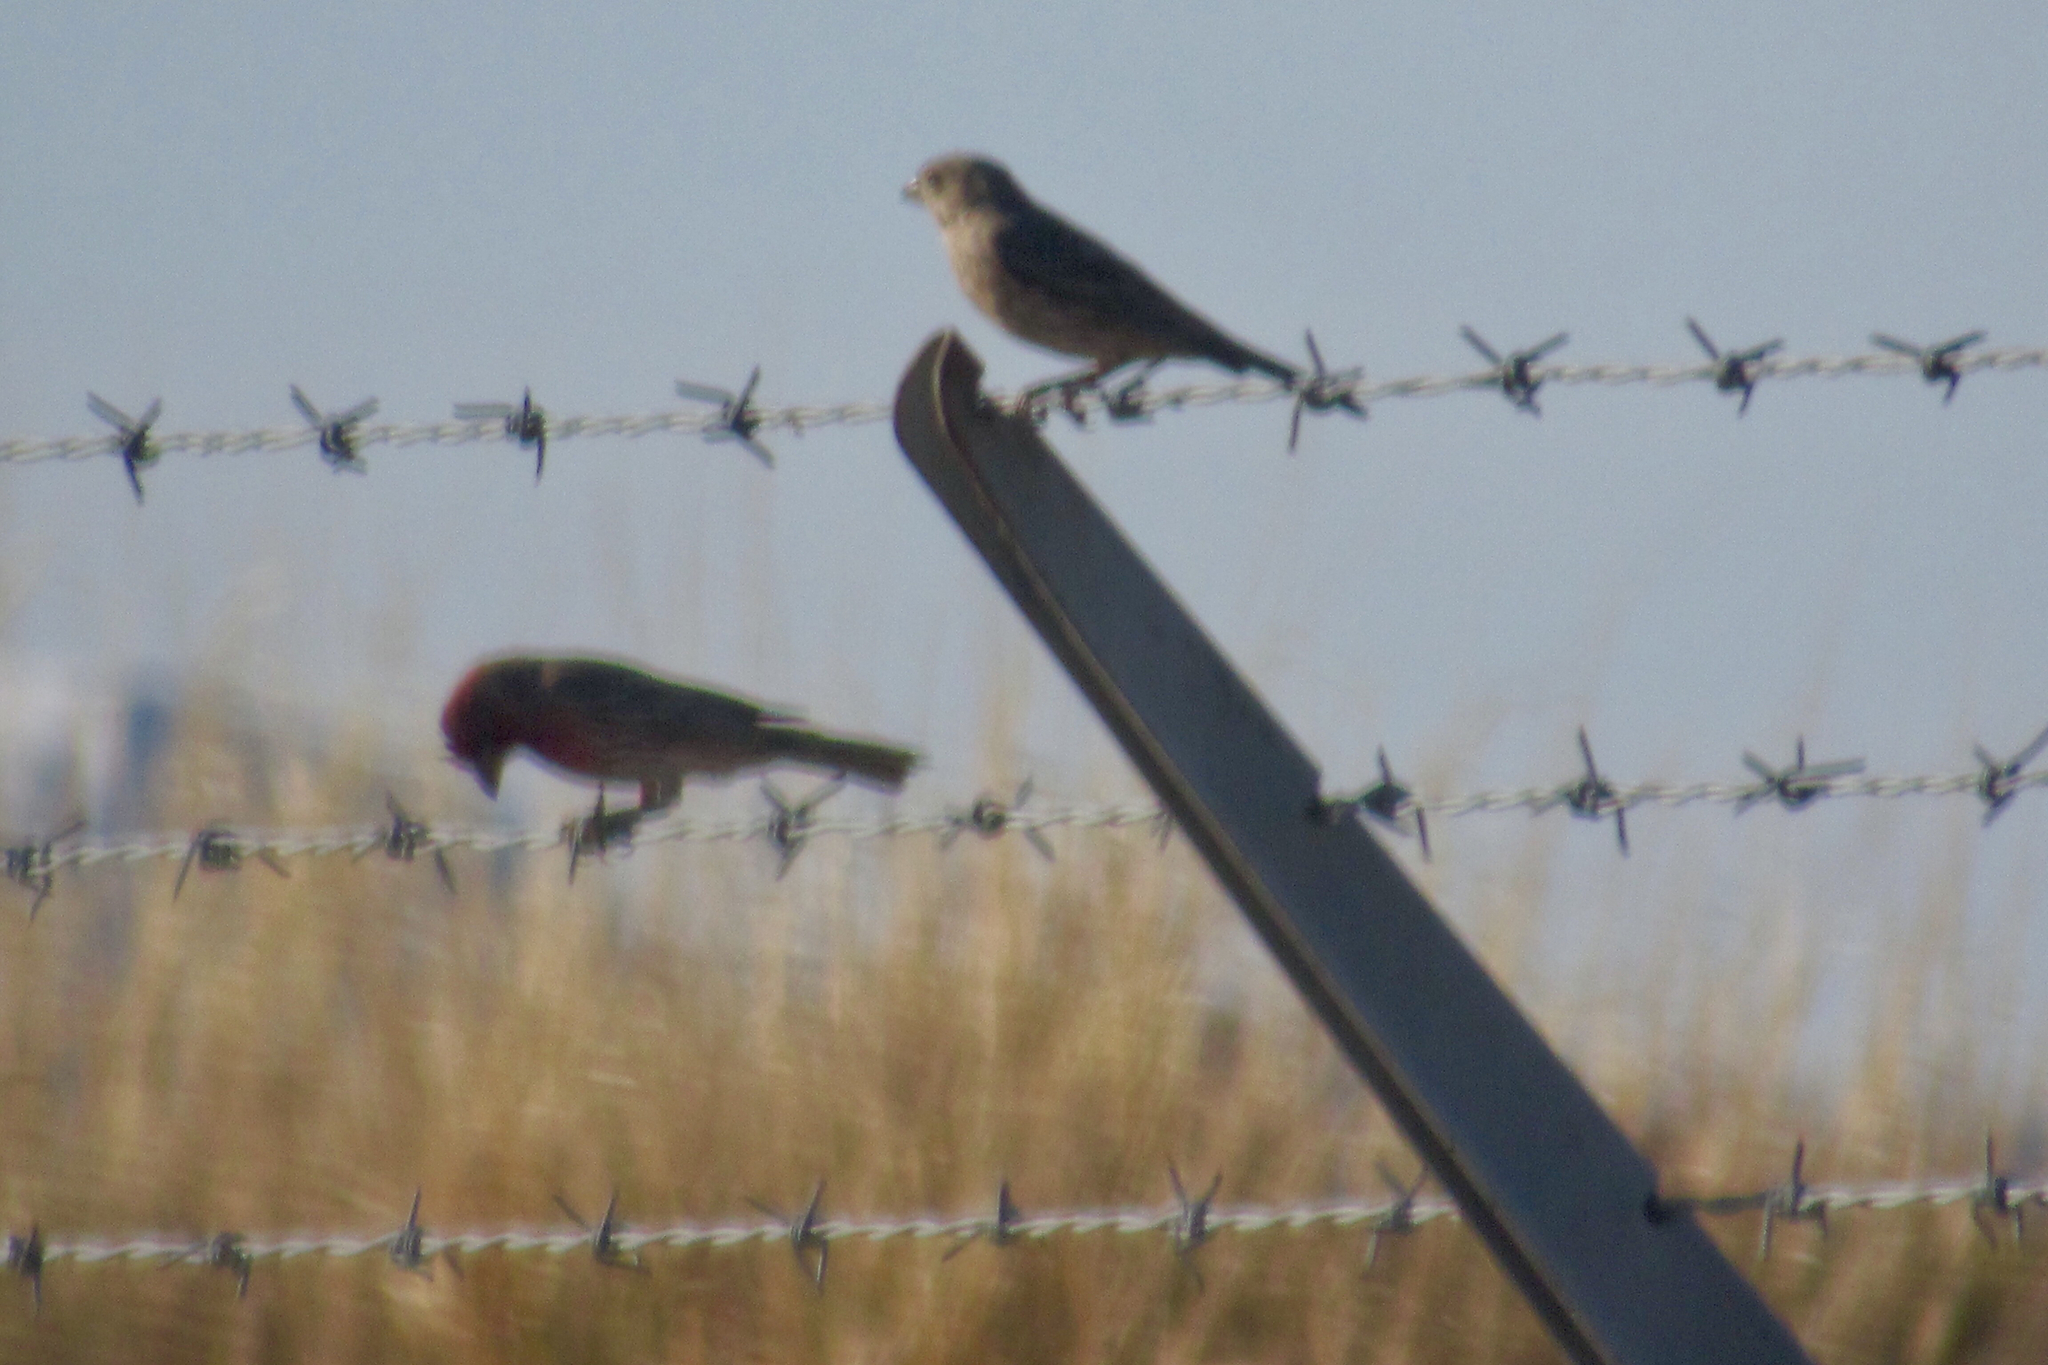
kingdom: Animalia
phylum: Chordata
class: Aves
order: Passeriformes
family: Fringillidae
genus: Haemorhous
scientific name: Haemorhous mexicanus
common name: House finch
